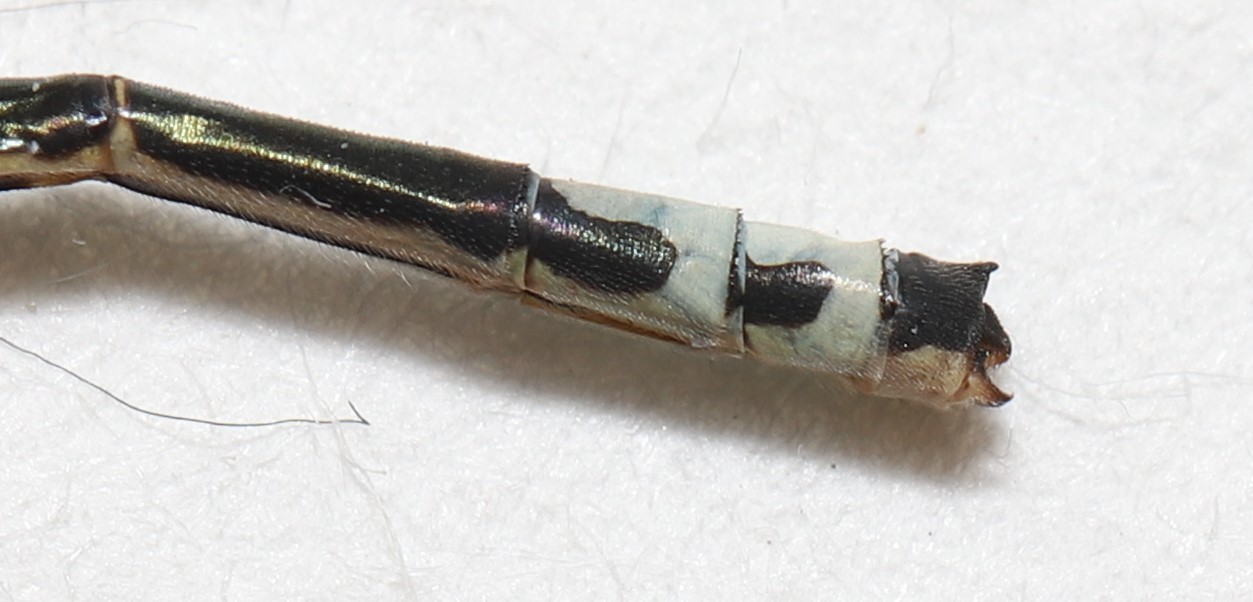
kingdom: Animalia
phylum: Arthropoda
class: Insecta
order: Odonata
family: Coenagrionidae
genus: Ischnura
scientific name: Ischnura verticalis
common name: Eastern forktail
